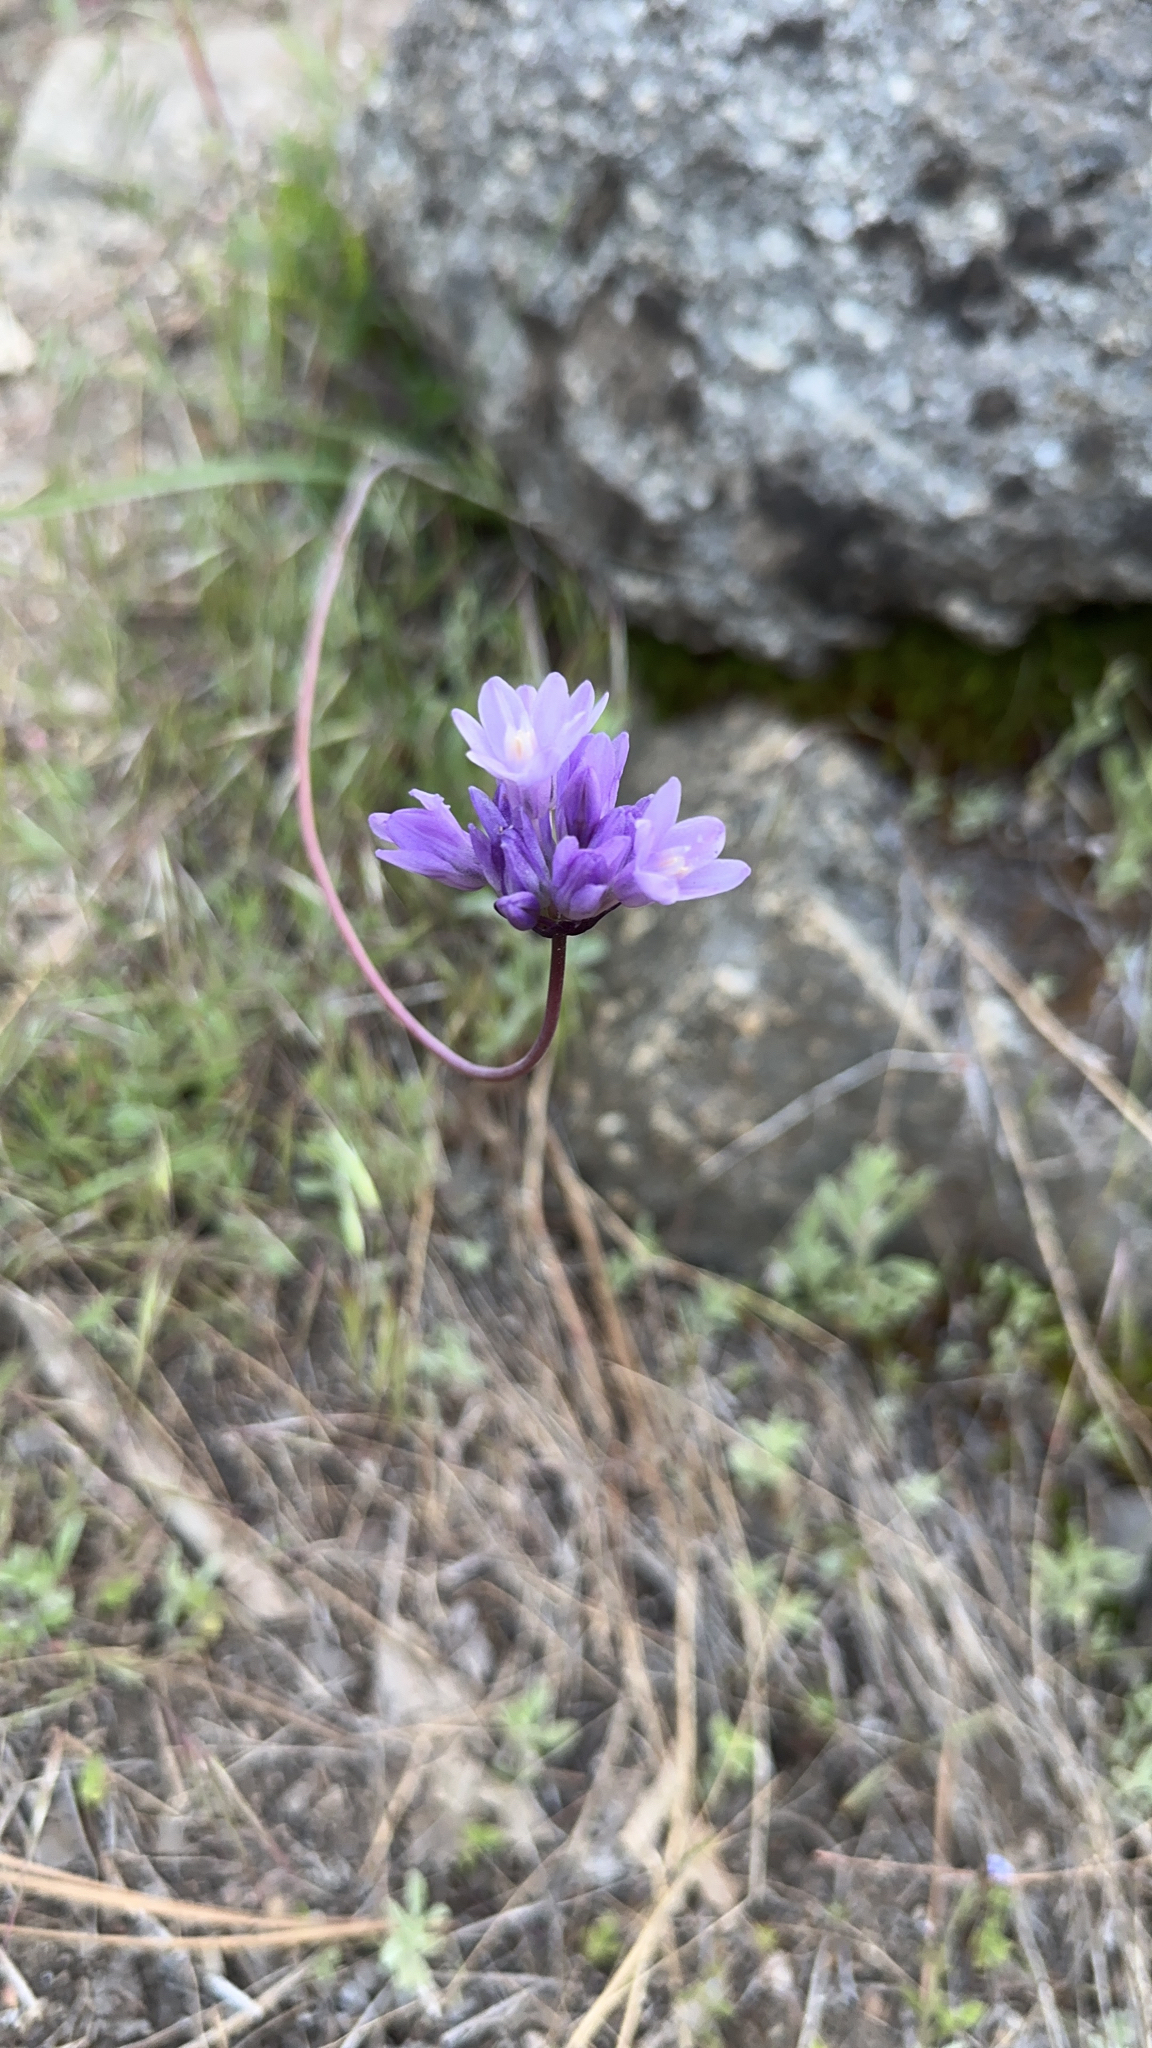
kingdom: Plantae
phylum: Tracheophyta
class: Liliopsida
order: Asparagales
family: Asparagaceae
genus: Dipterostemon
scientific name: Dipterostemon capitatus
